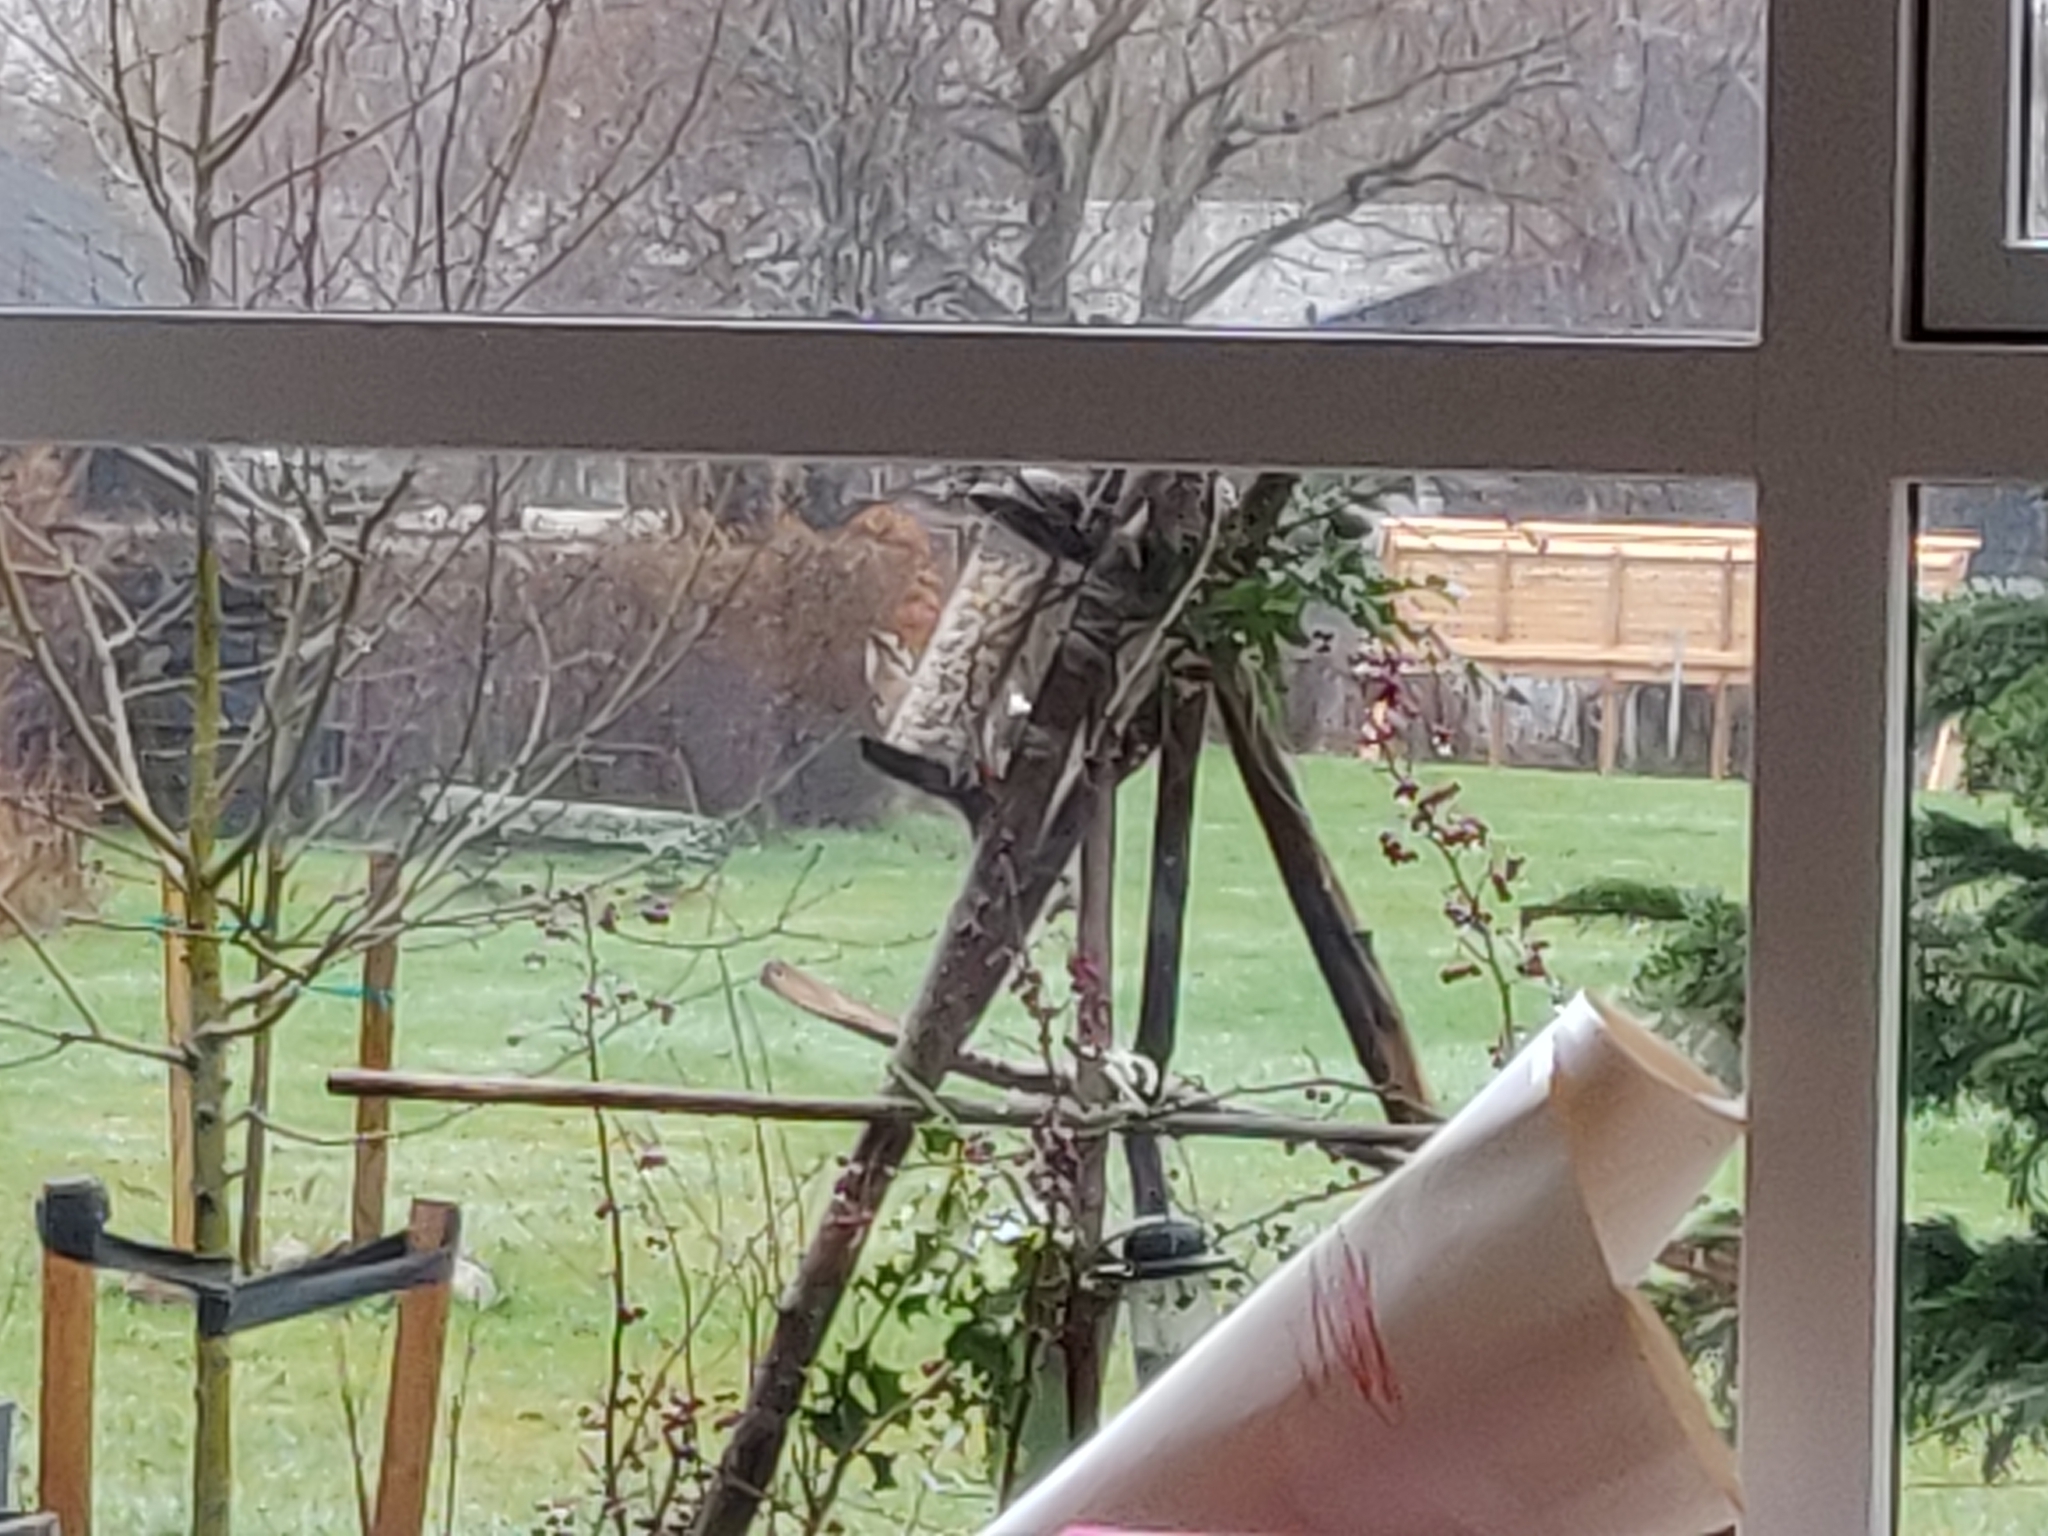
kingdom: Animalia
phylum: Chordata
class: Aves
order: Piciformes
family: Picidae
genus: Dendrocopos
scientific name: Dendrocopos major
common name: Great spotted woodpecker
